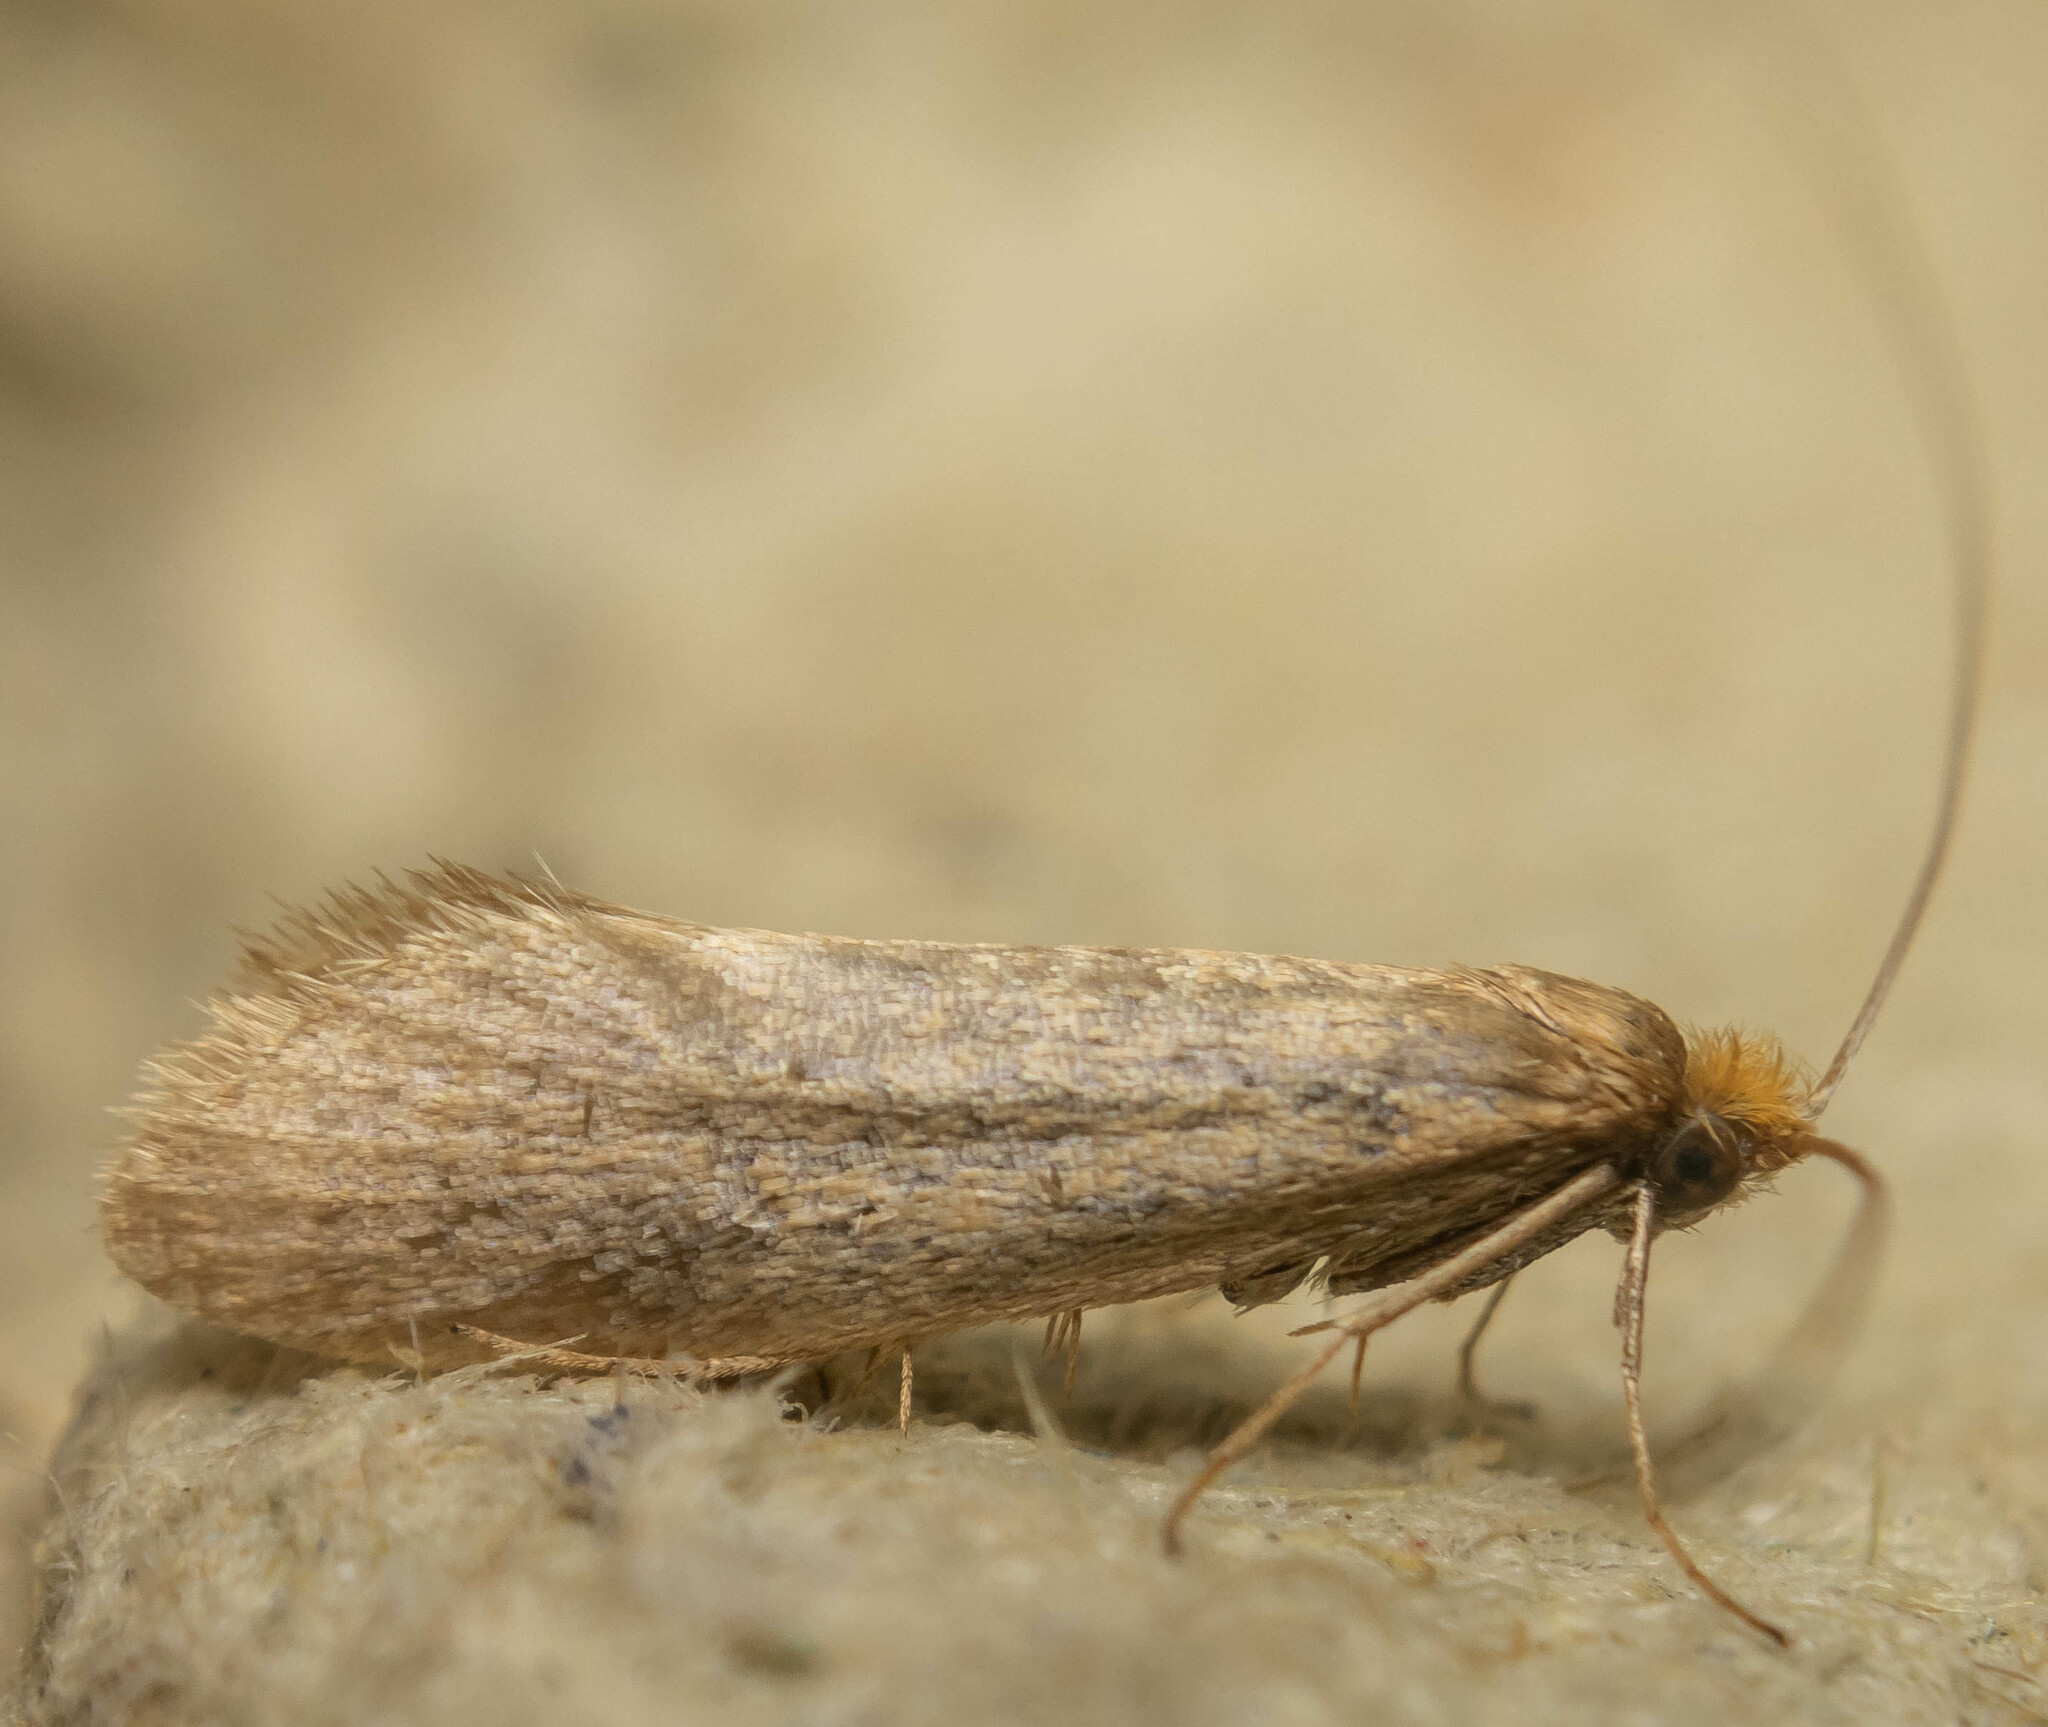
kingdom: Animalia
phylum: Arthropoda
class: Insecta
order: Lepidoptera
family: Psychidae
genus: Taleporia
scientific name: Taleporia tubulosa
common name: Brown smoke
